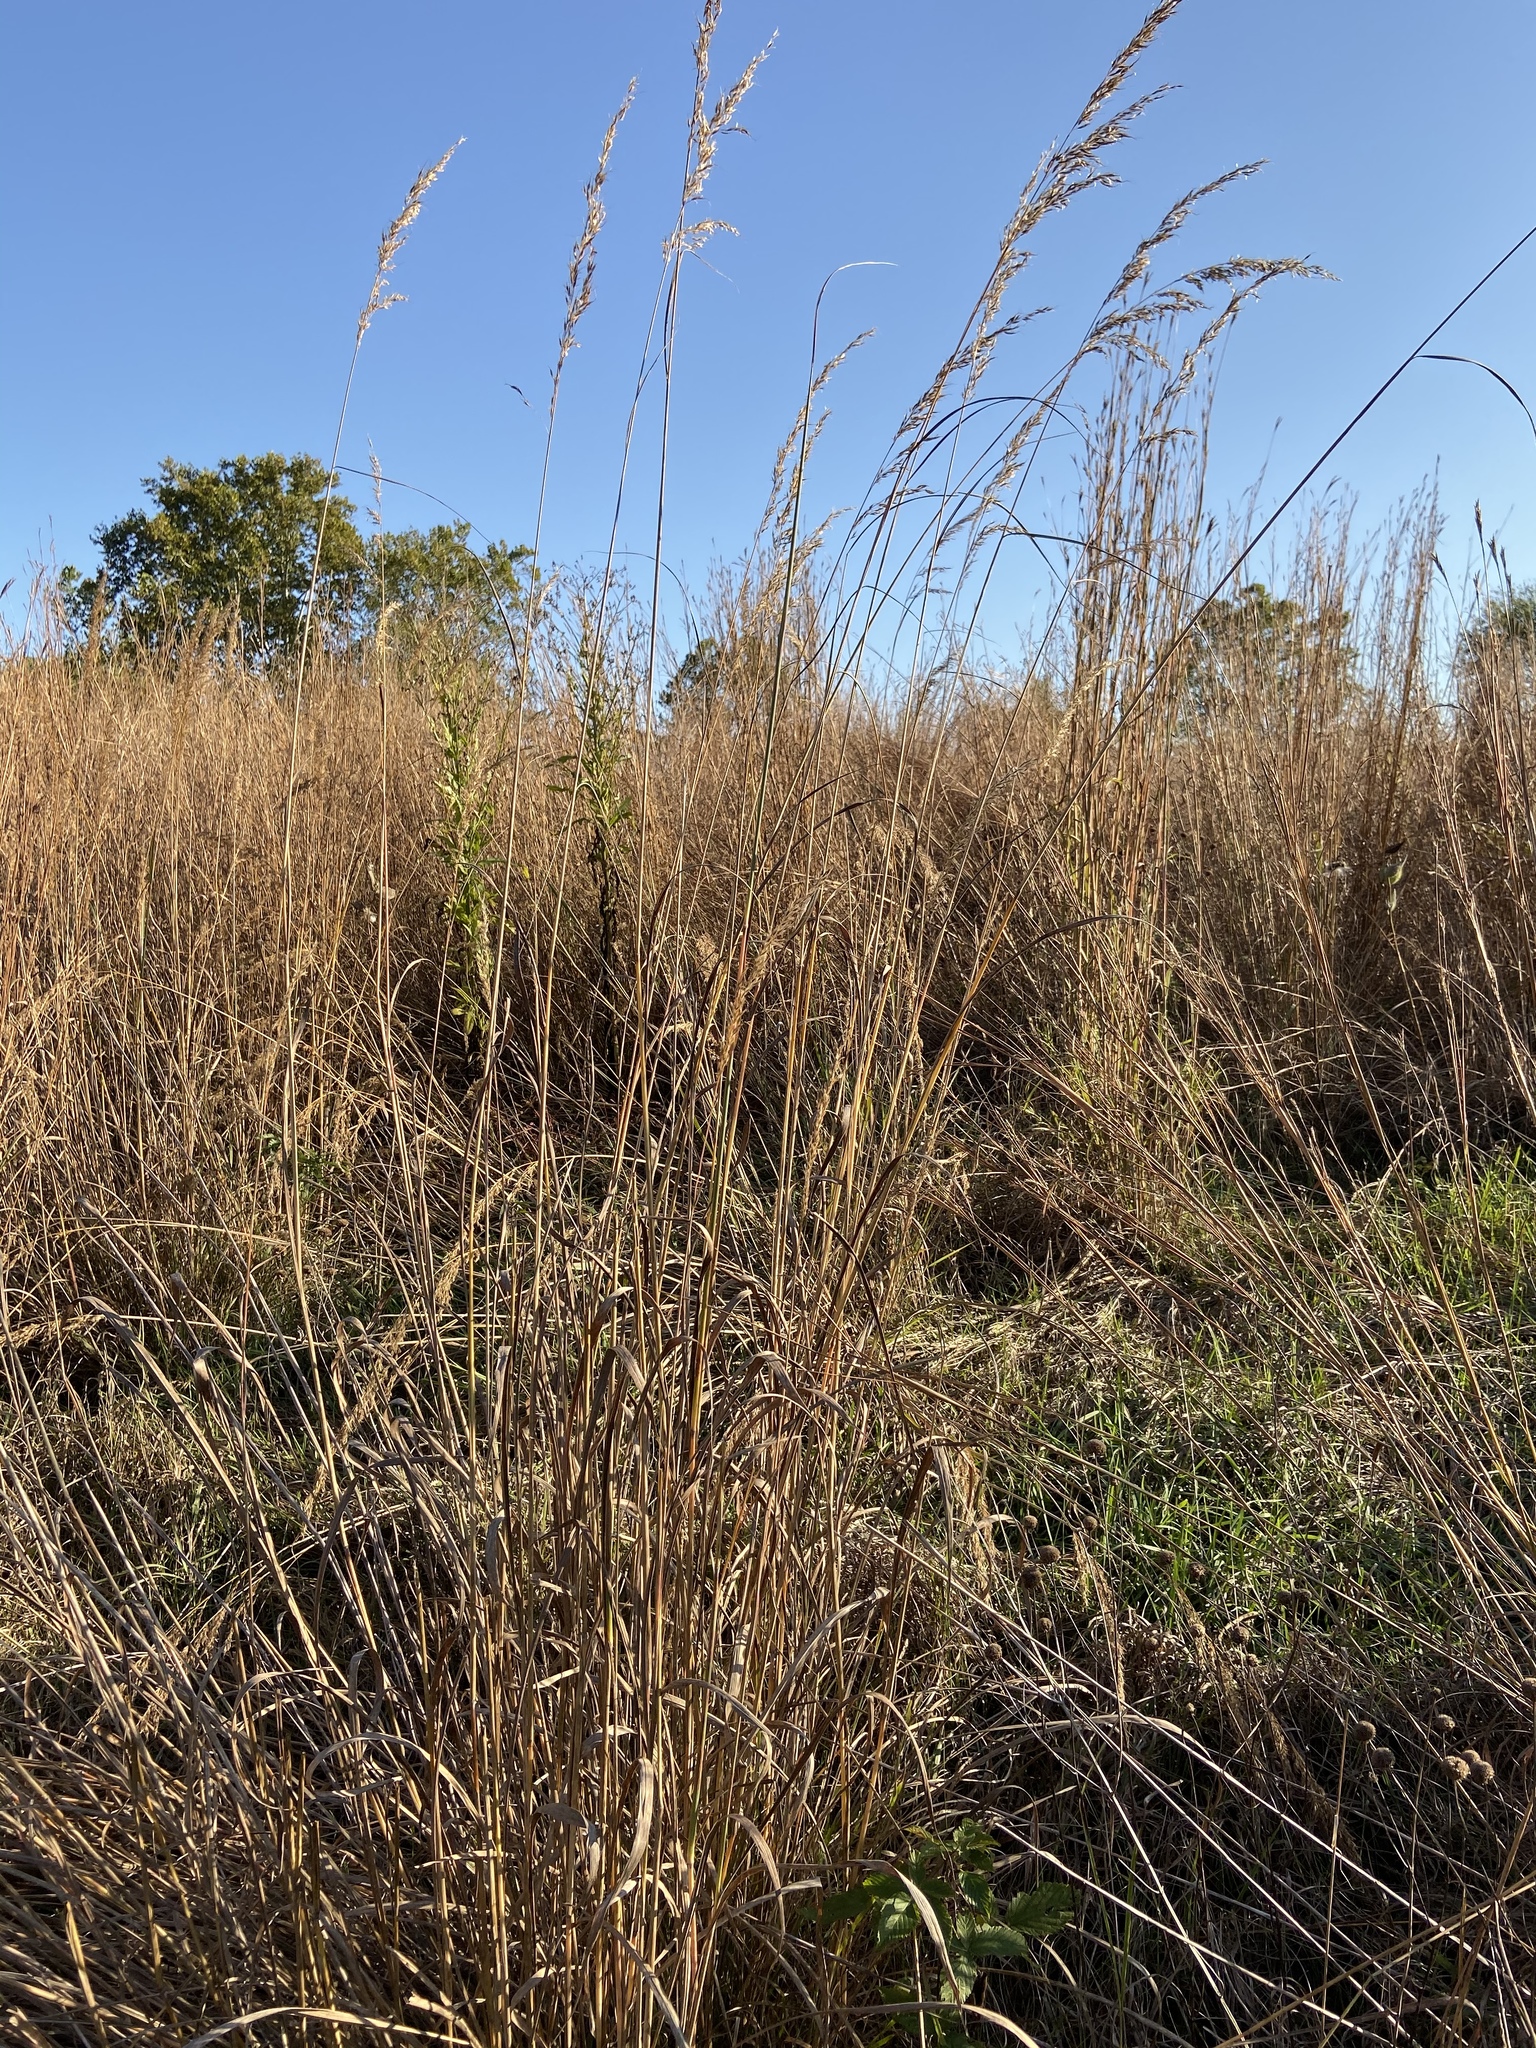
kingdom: Plantae
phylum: Tracheophyta
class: Liliopsida
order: Poales
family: Poaceae
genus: Sorghastrum
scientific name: Sorghastrum nutans
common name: Indian grass
